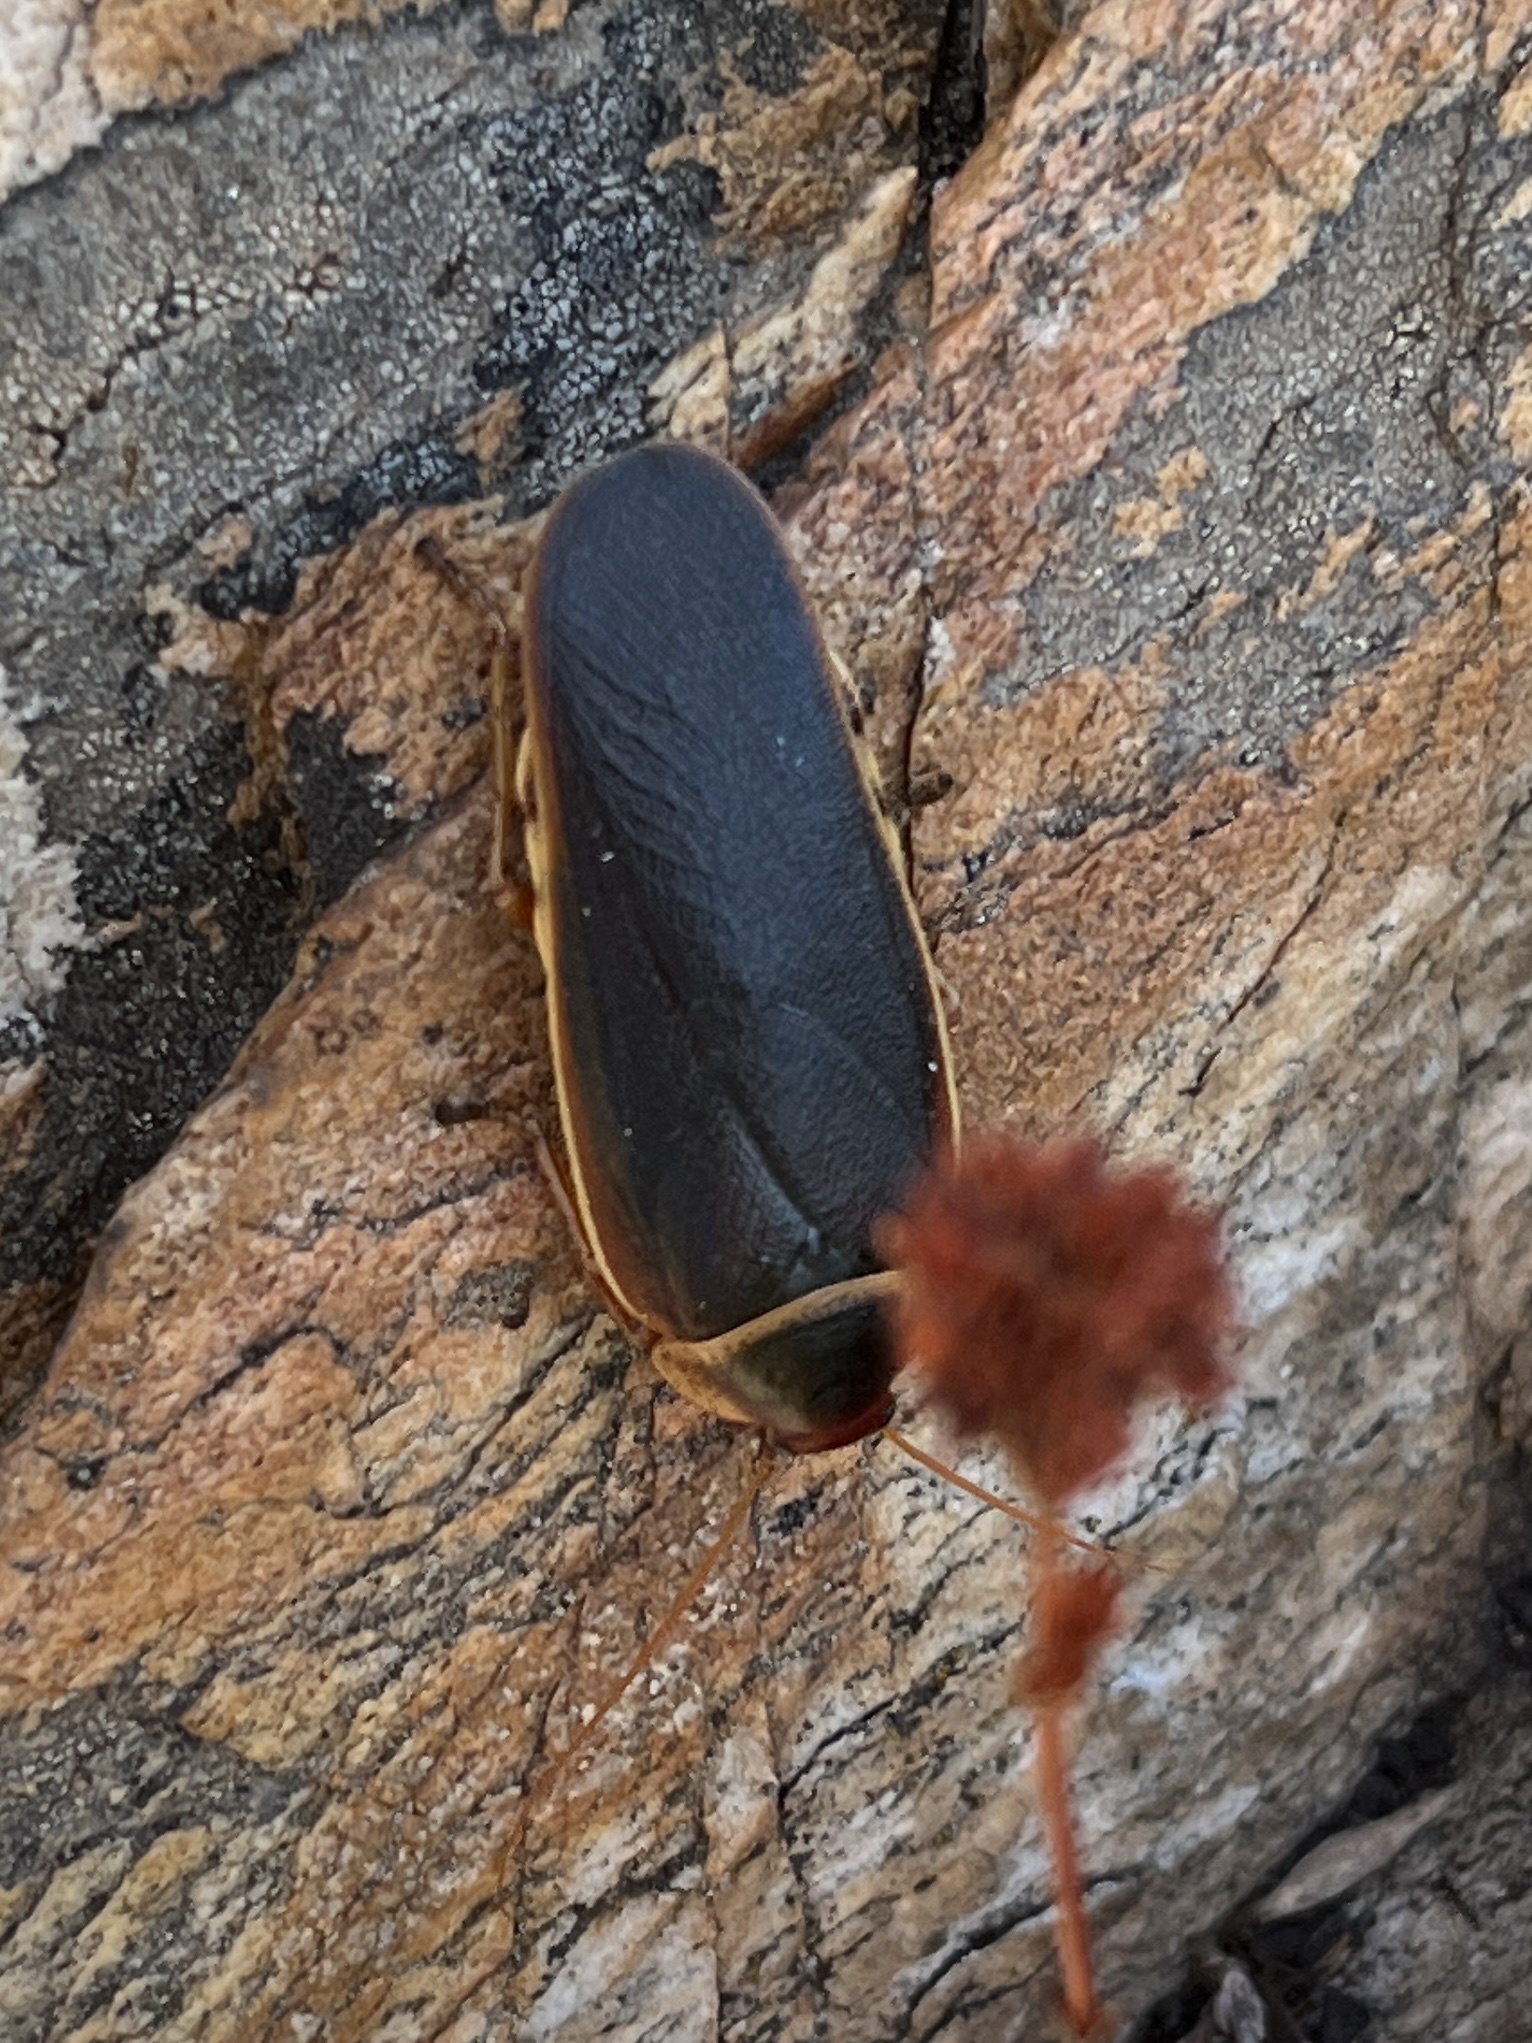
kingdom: Animalia
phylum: Arthropoda
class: Insecta
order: Blattodea
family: Blaberidae
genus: Aptera
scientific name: Aptera fusca
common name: Cape mountain cockroach
